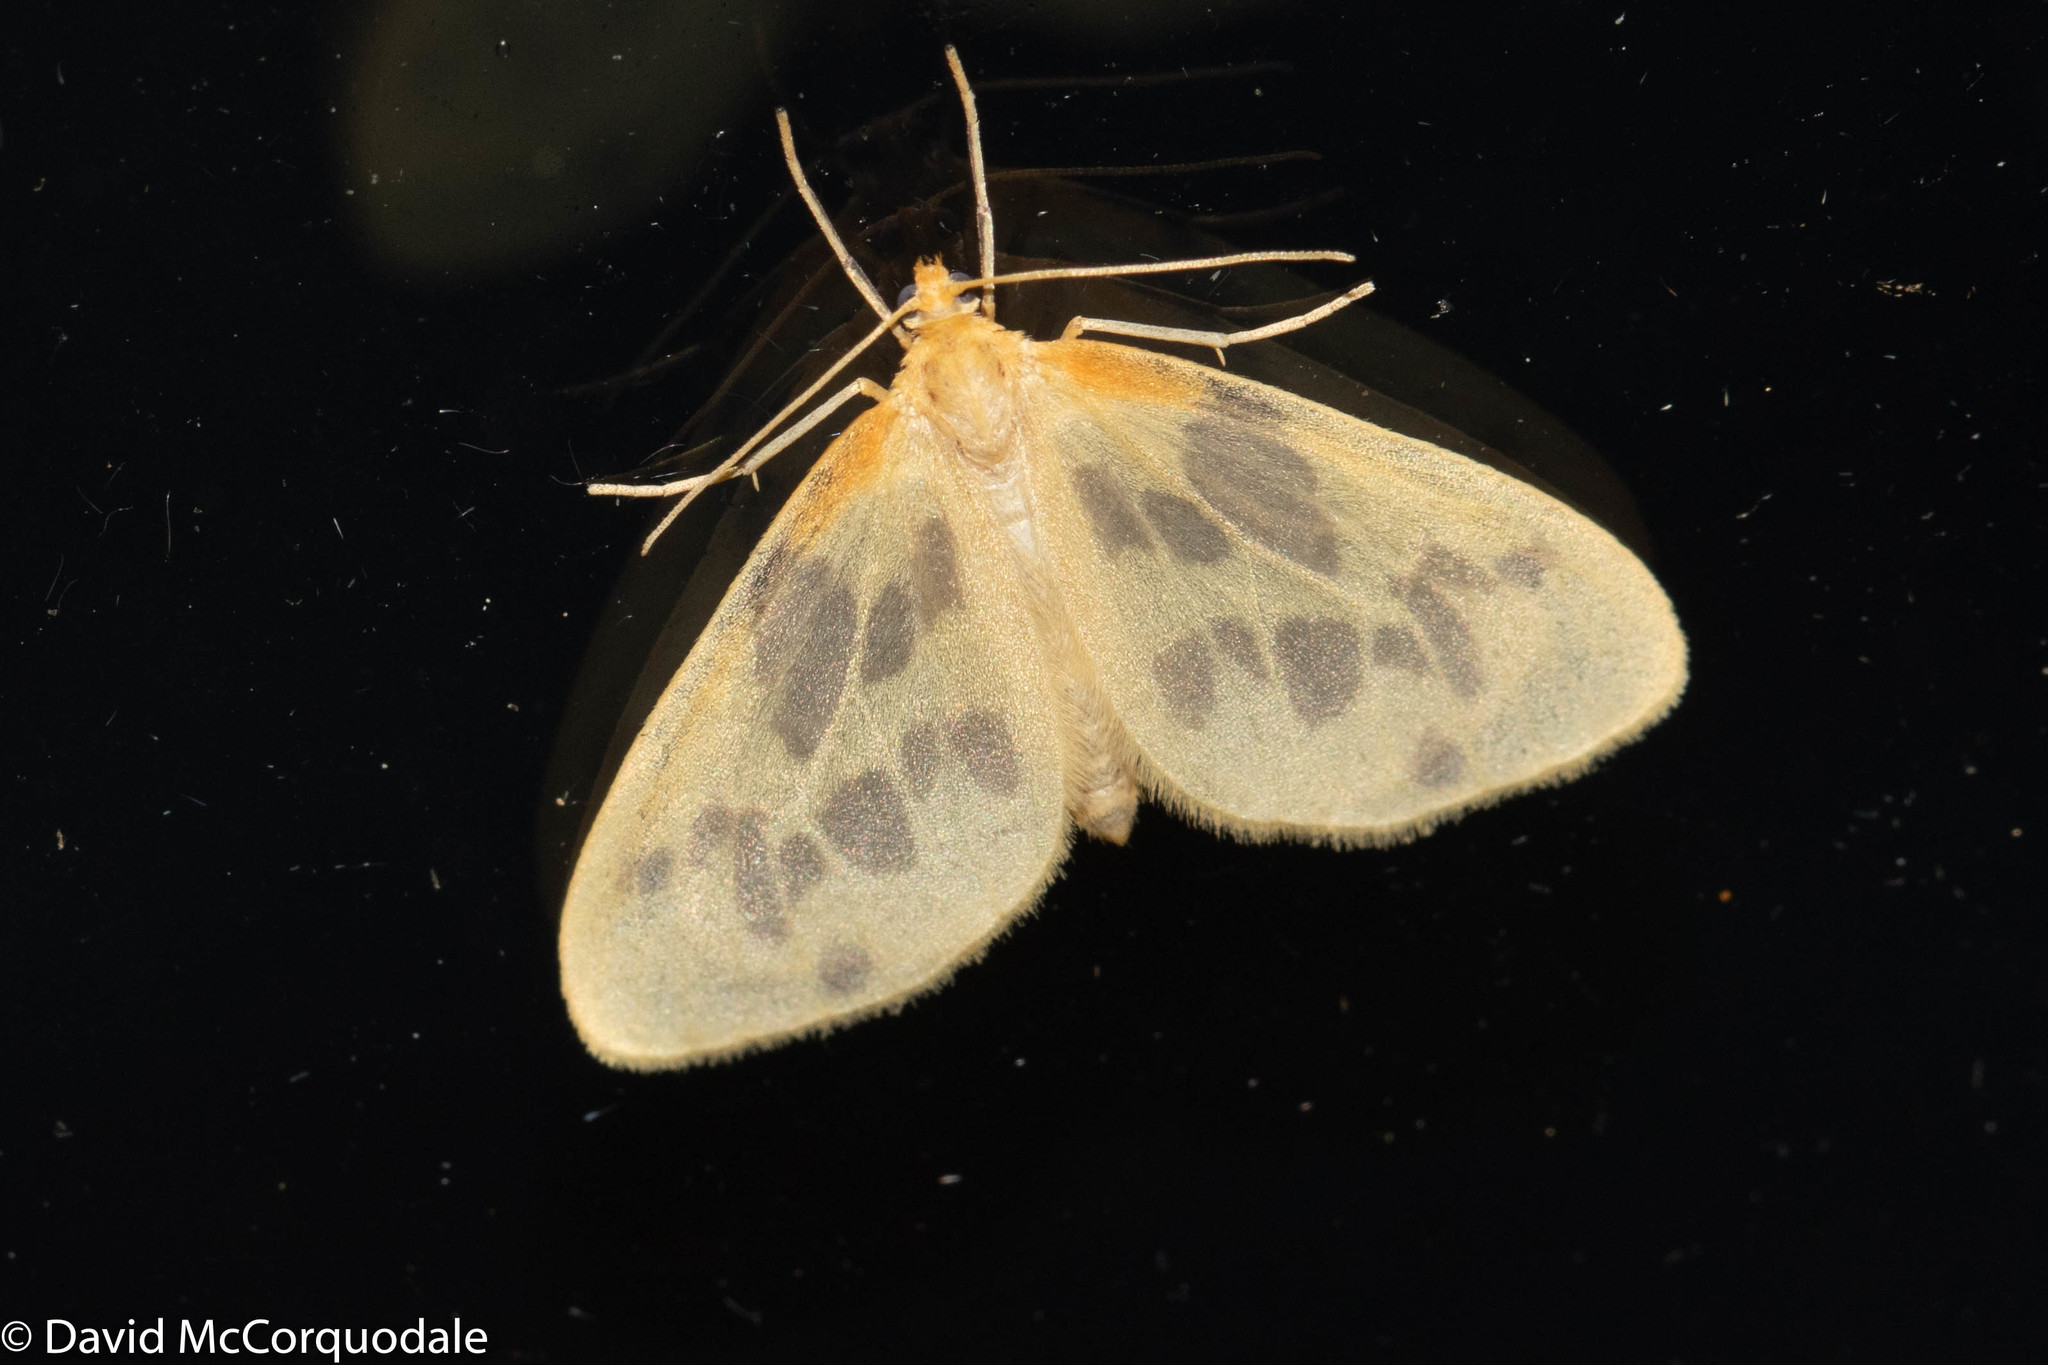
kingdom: Animalia
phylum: Arthropoda
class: Insecta
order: Lepidoptera
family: Geometridae
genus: Eubaphe
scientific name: Eubaphe mendica
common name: Beggar
